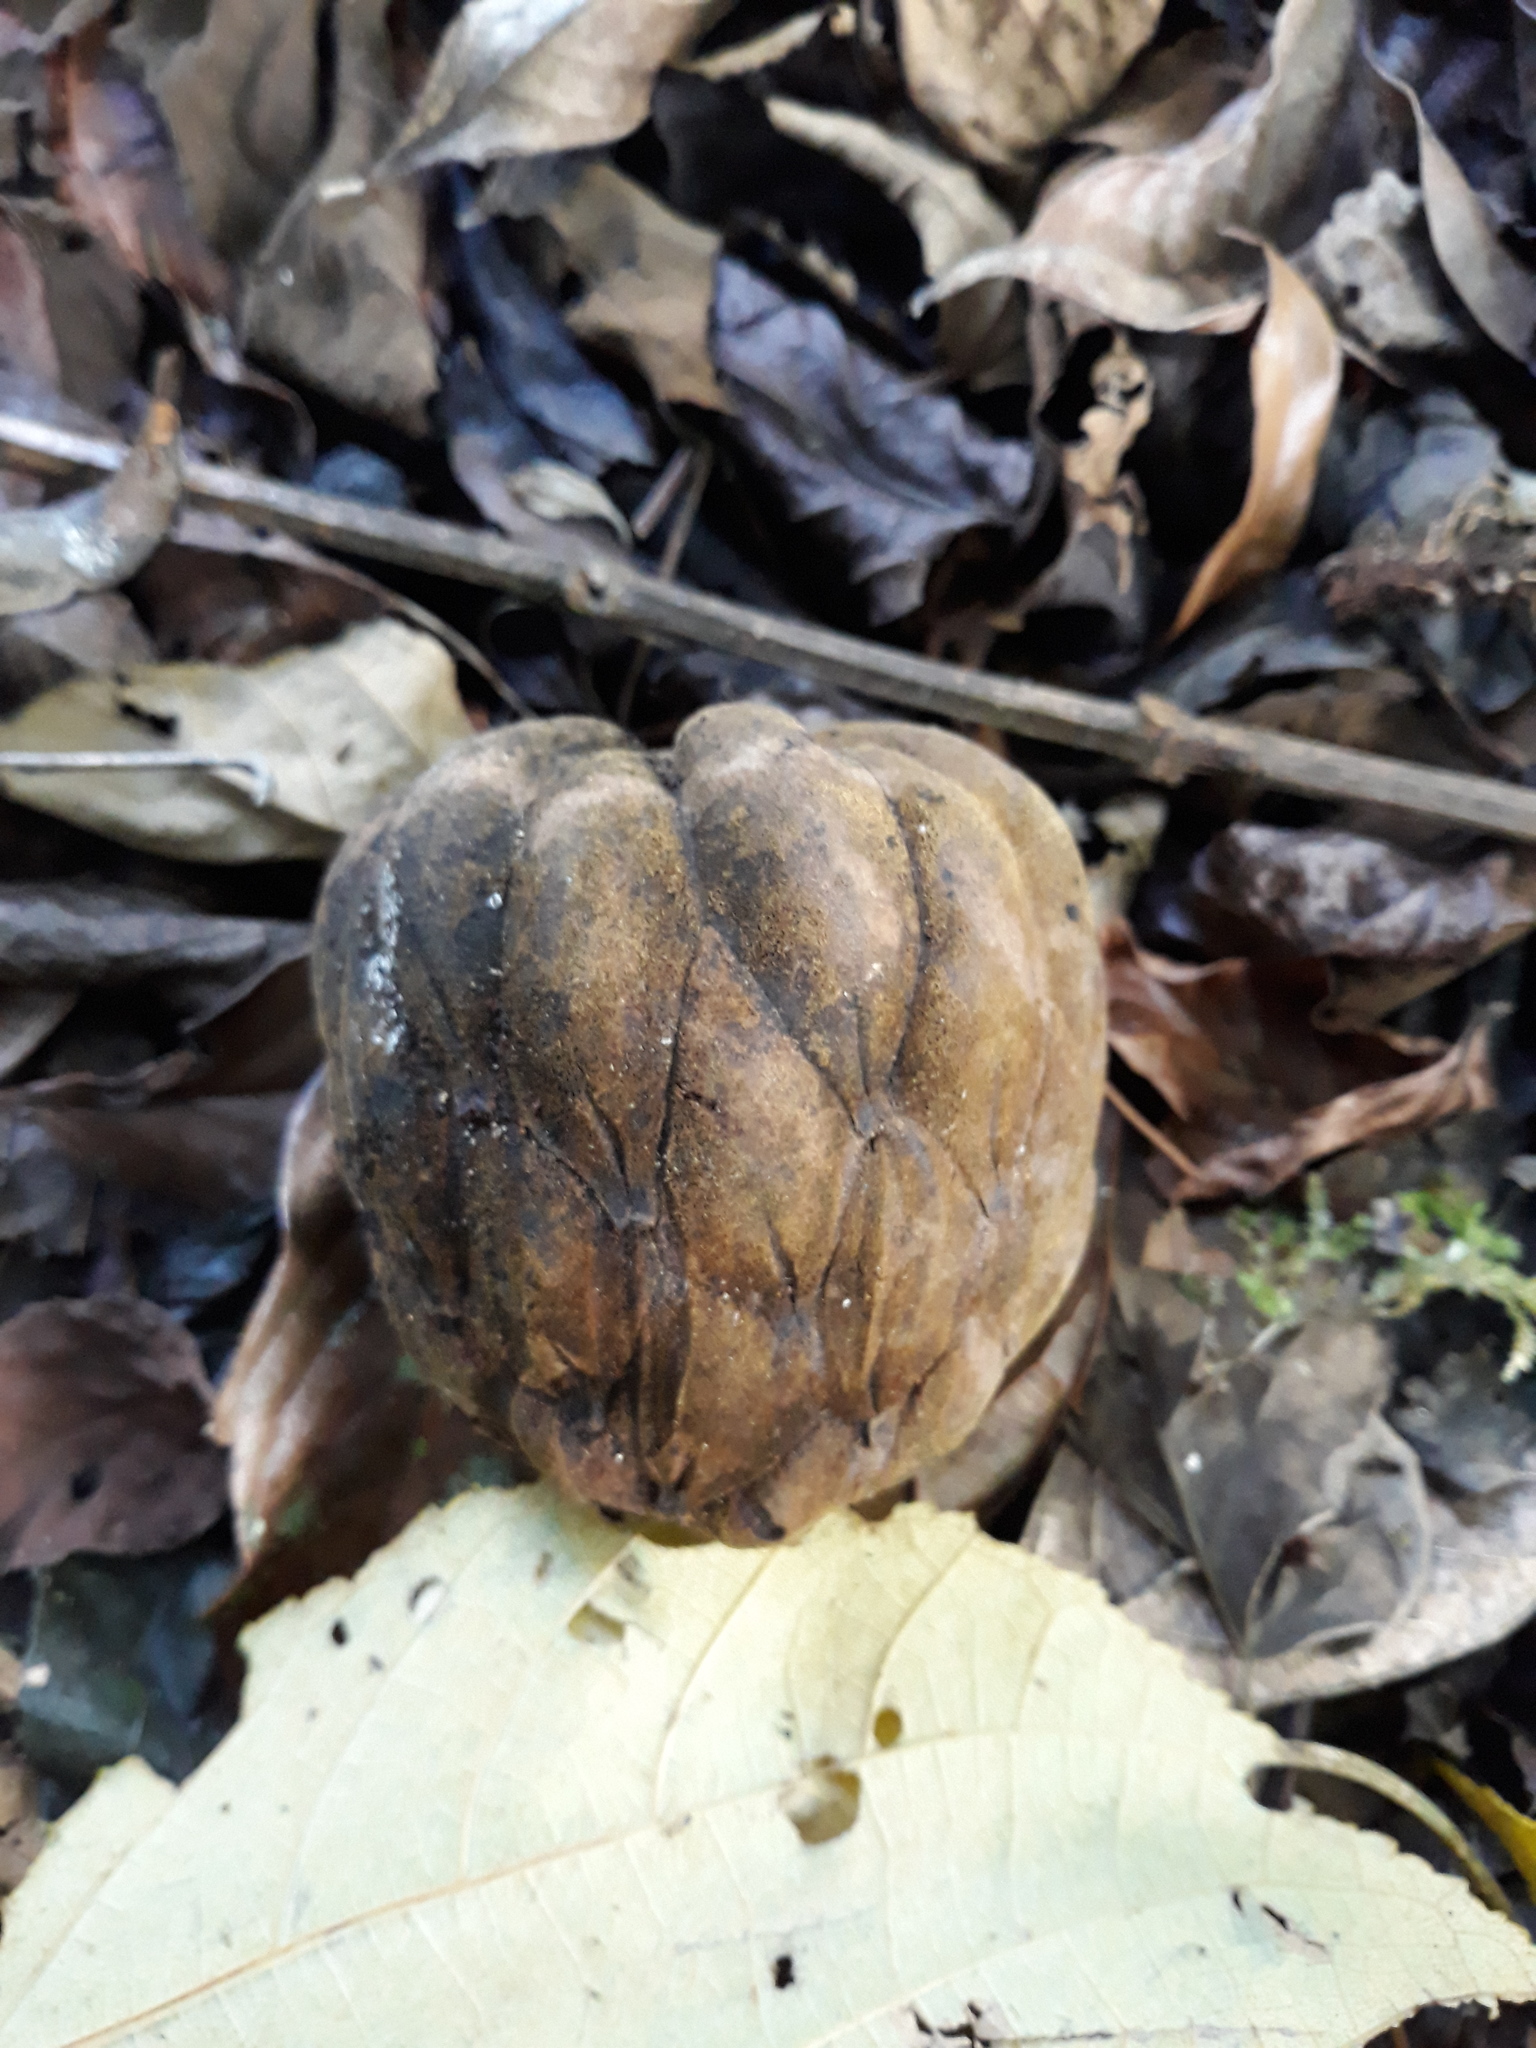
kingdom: Plantae
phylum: Tracheophyta
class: Magnoliopsida
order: Magnoliales
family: Magnoliaceae
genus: Magnolia
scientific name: Magnolia lopezobradorii
